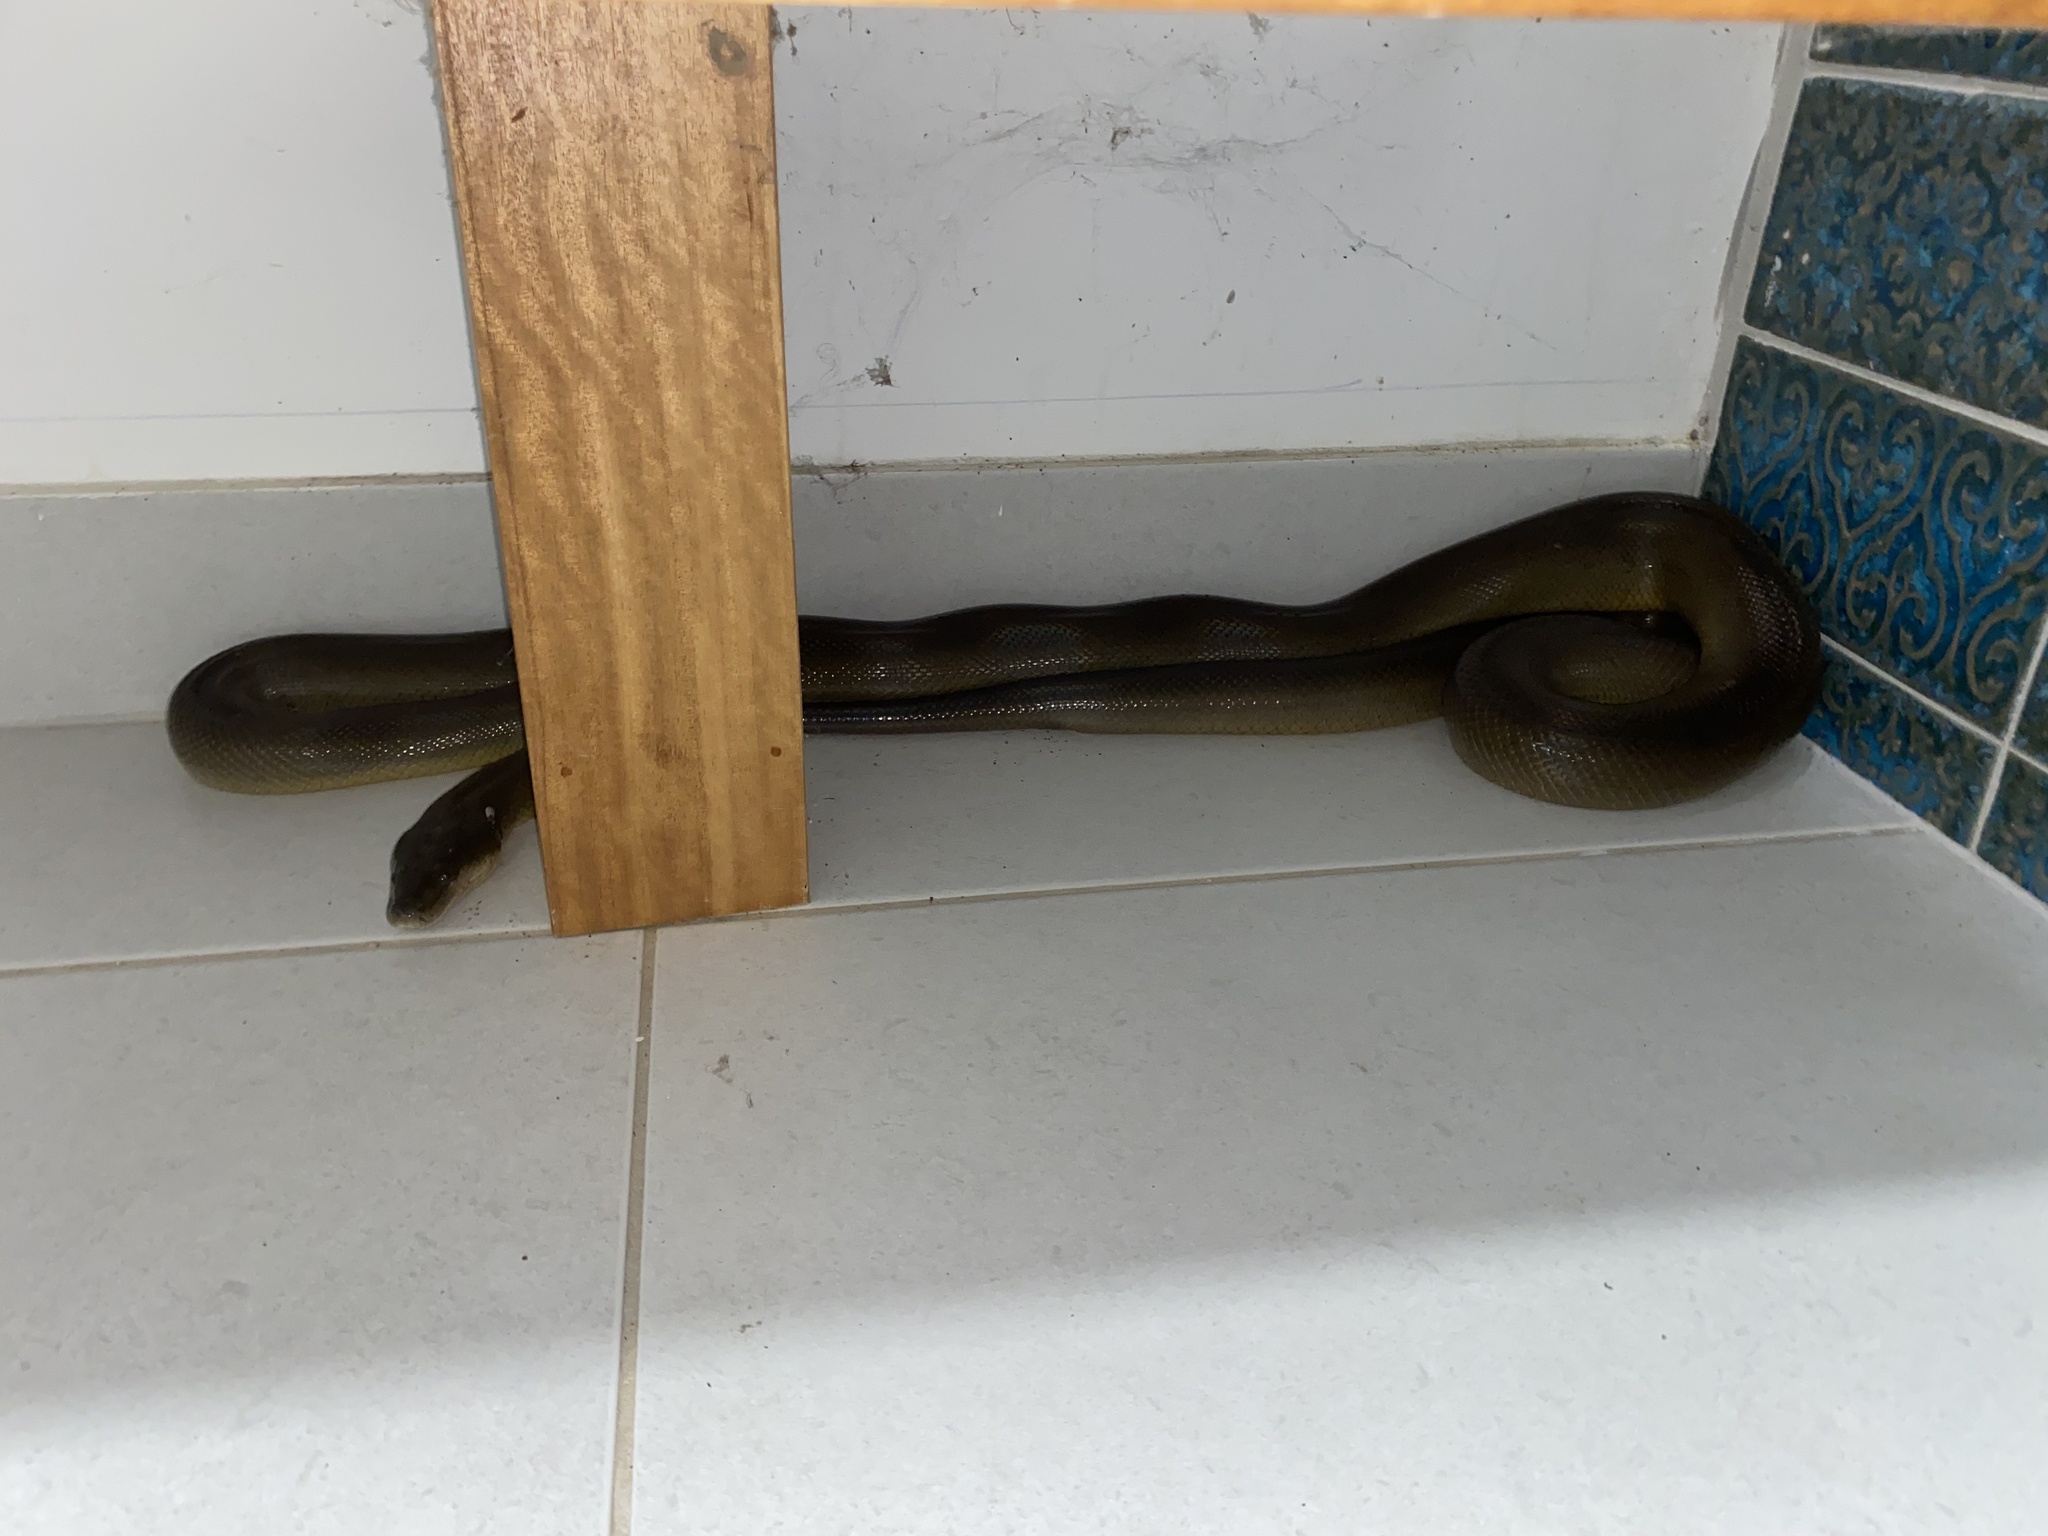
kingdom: Animalia
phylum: Chordata
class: Squamata
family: Pythonidae
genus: Liasis
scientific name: Liasis fuscus
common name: Brown water python
